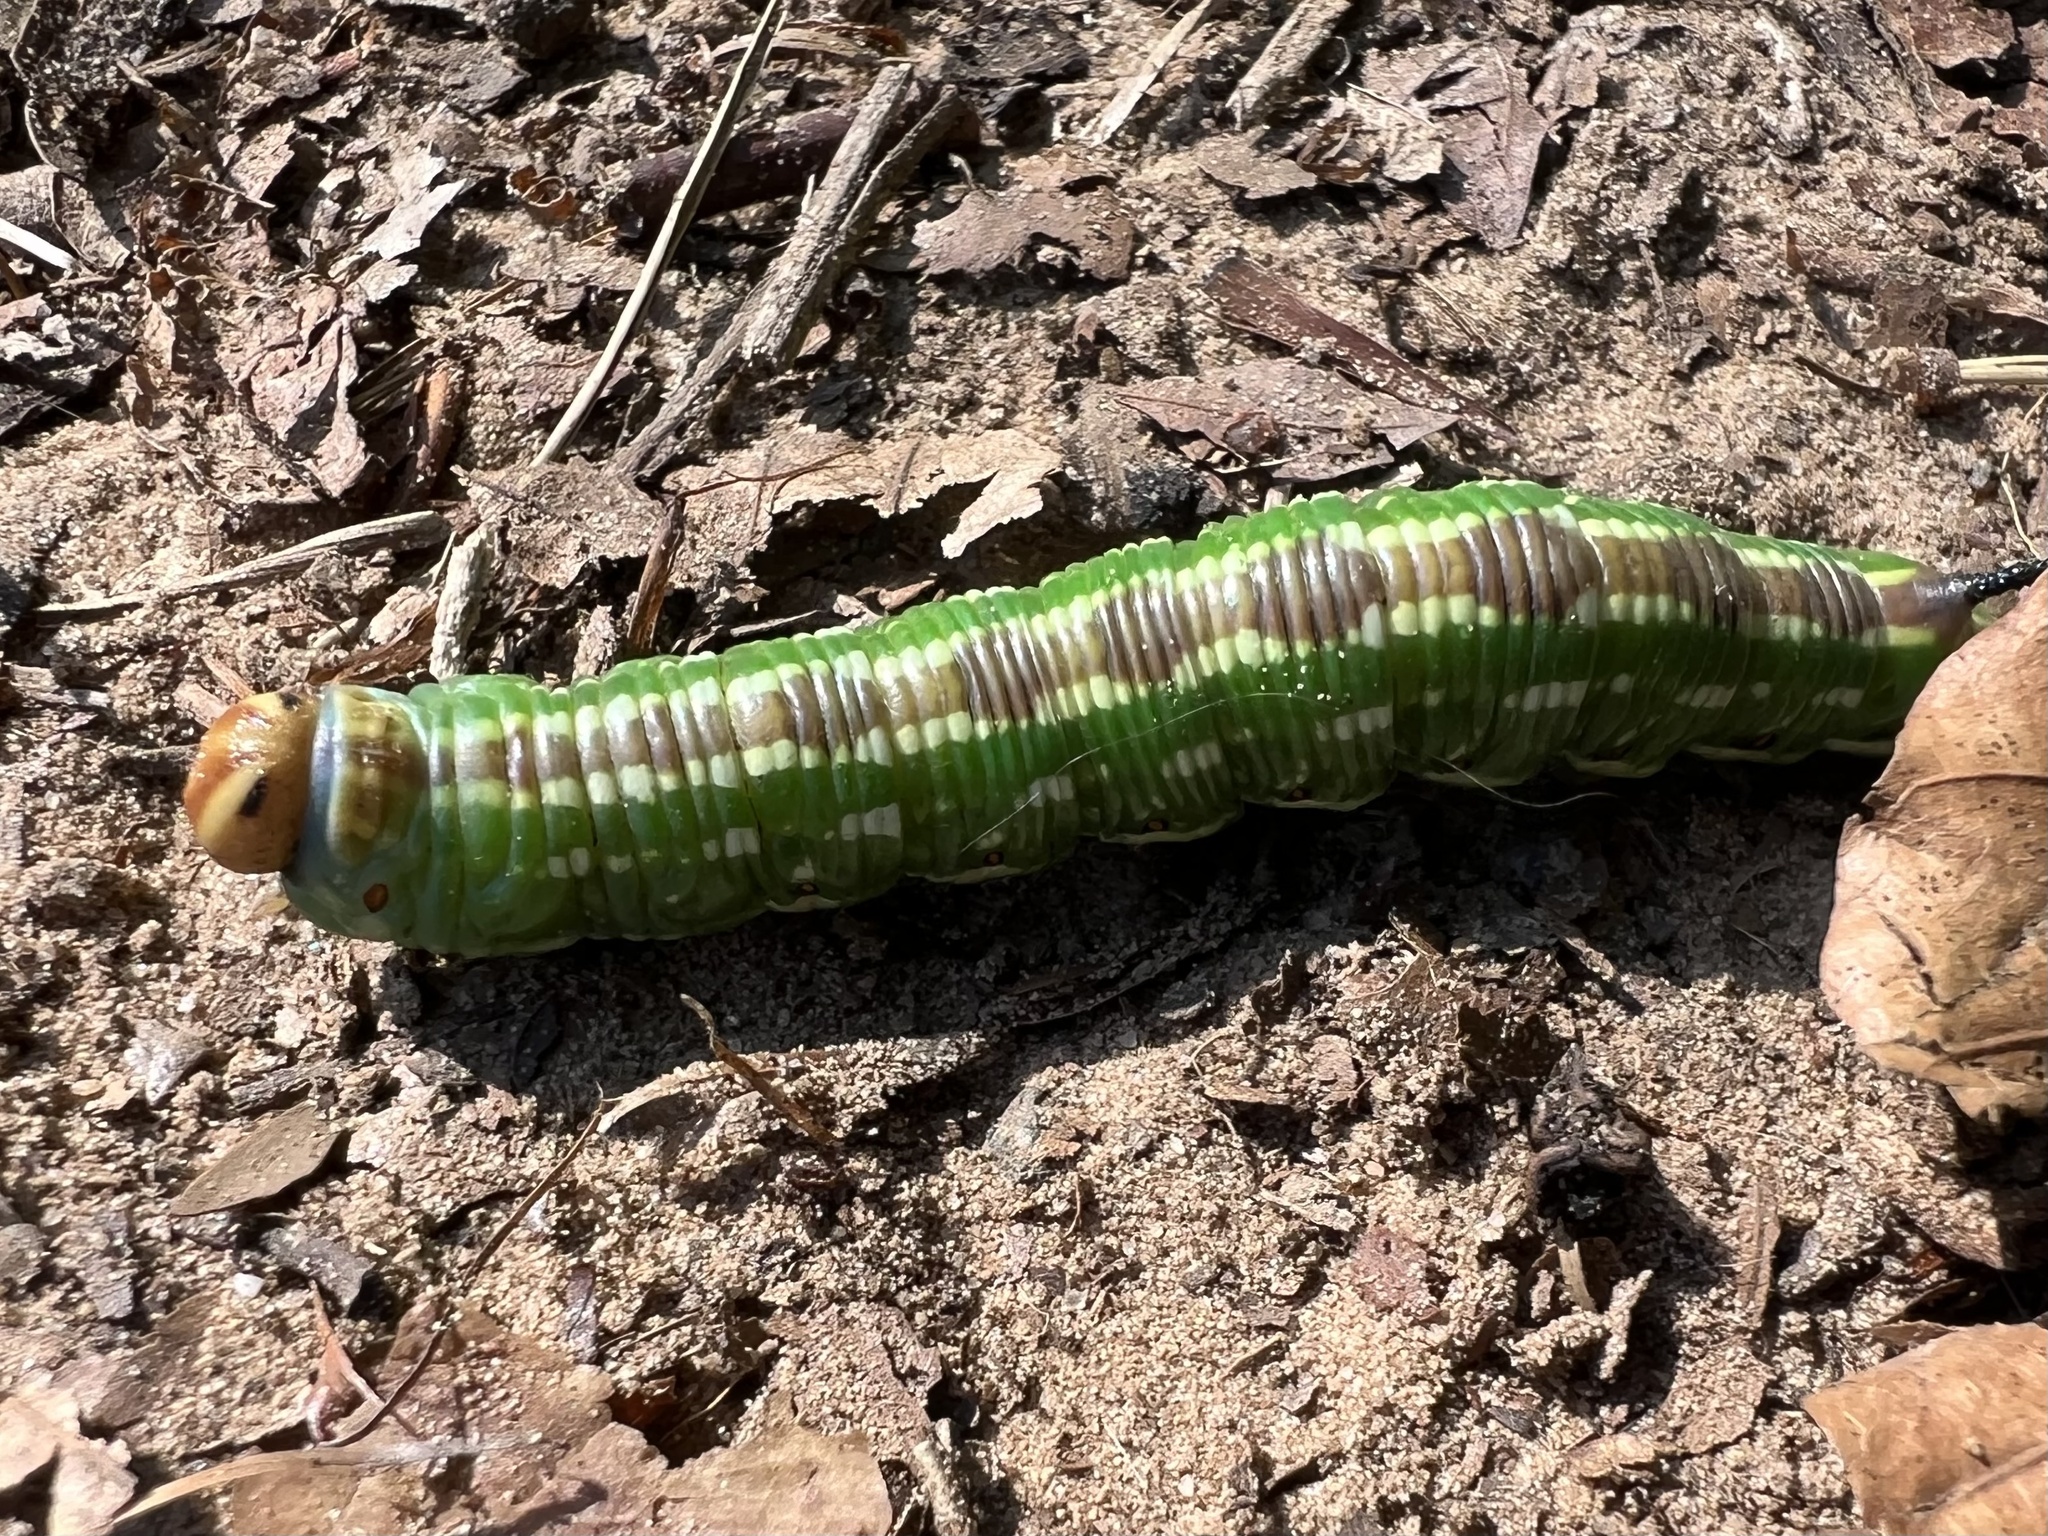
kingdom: Animalia
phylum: Arthropoda
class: Insecta
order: Lepidoptera
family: Sphingidae
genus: Sphinx
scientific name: Sphinx pinastri
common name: Pine hawk-moth
